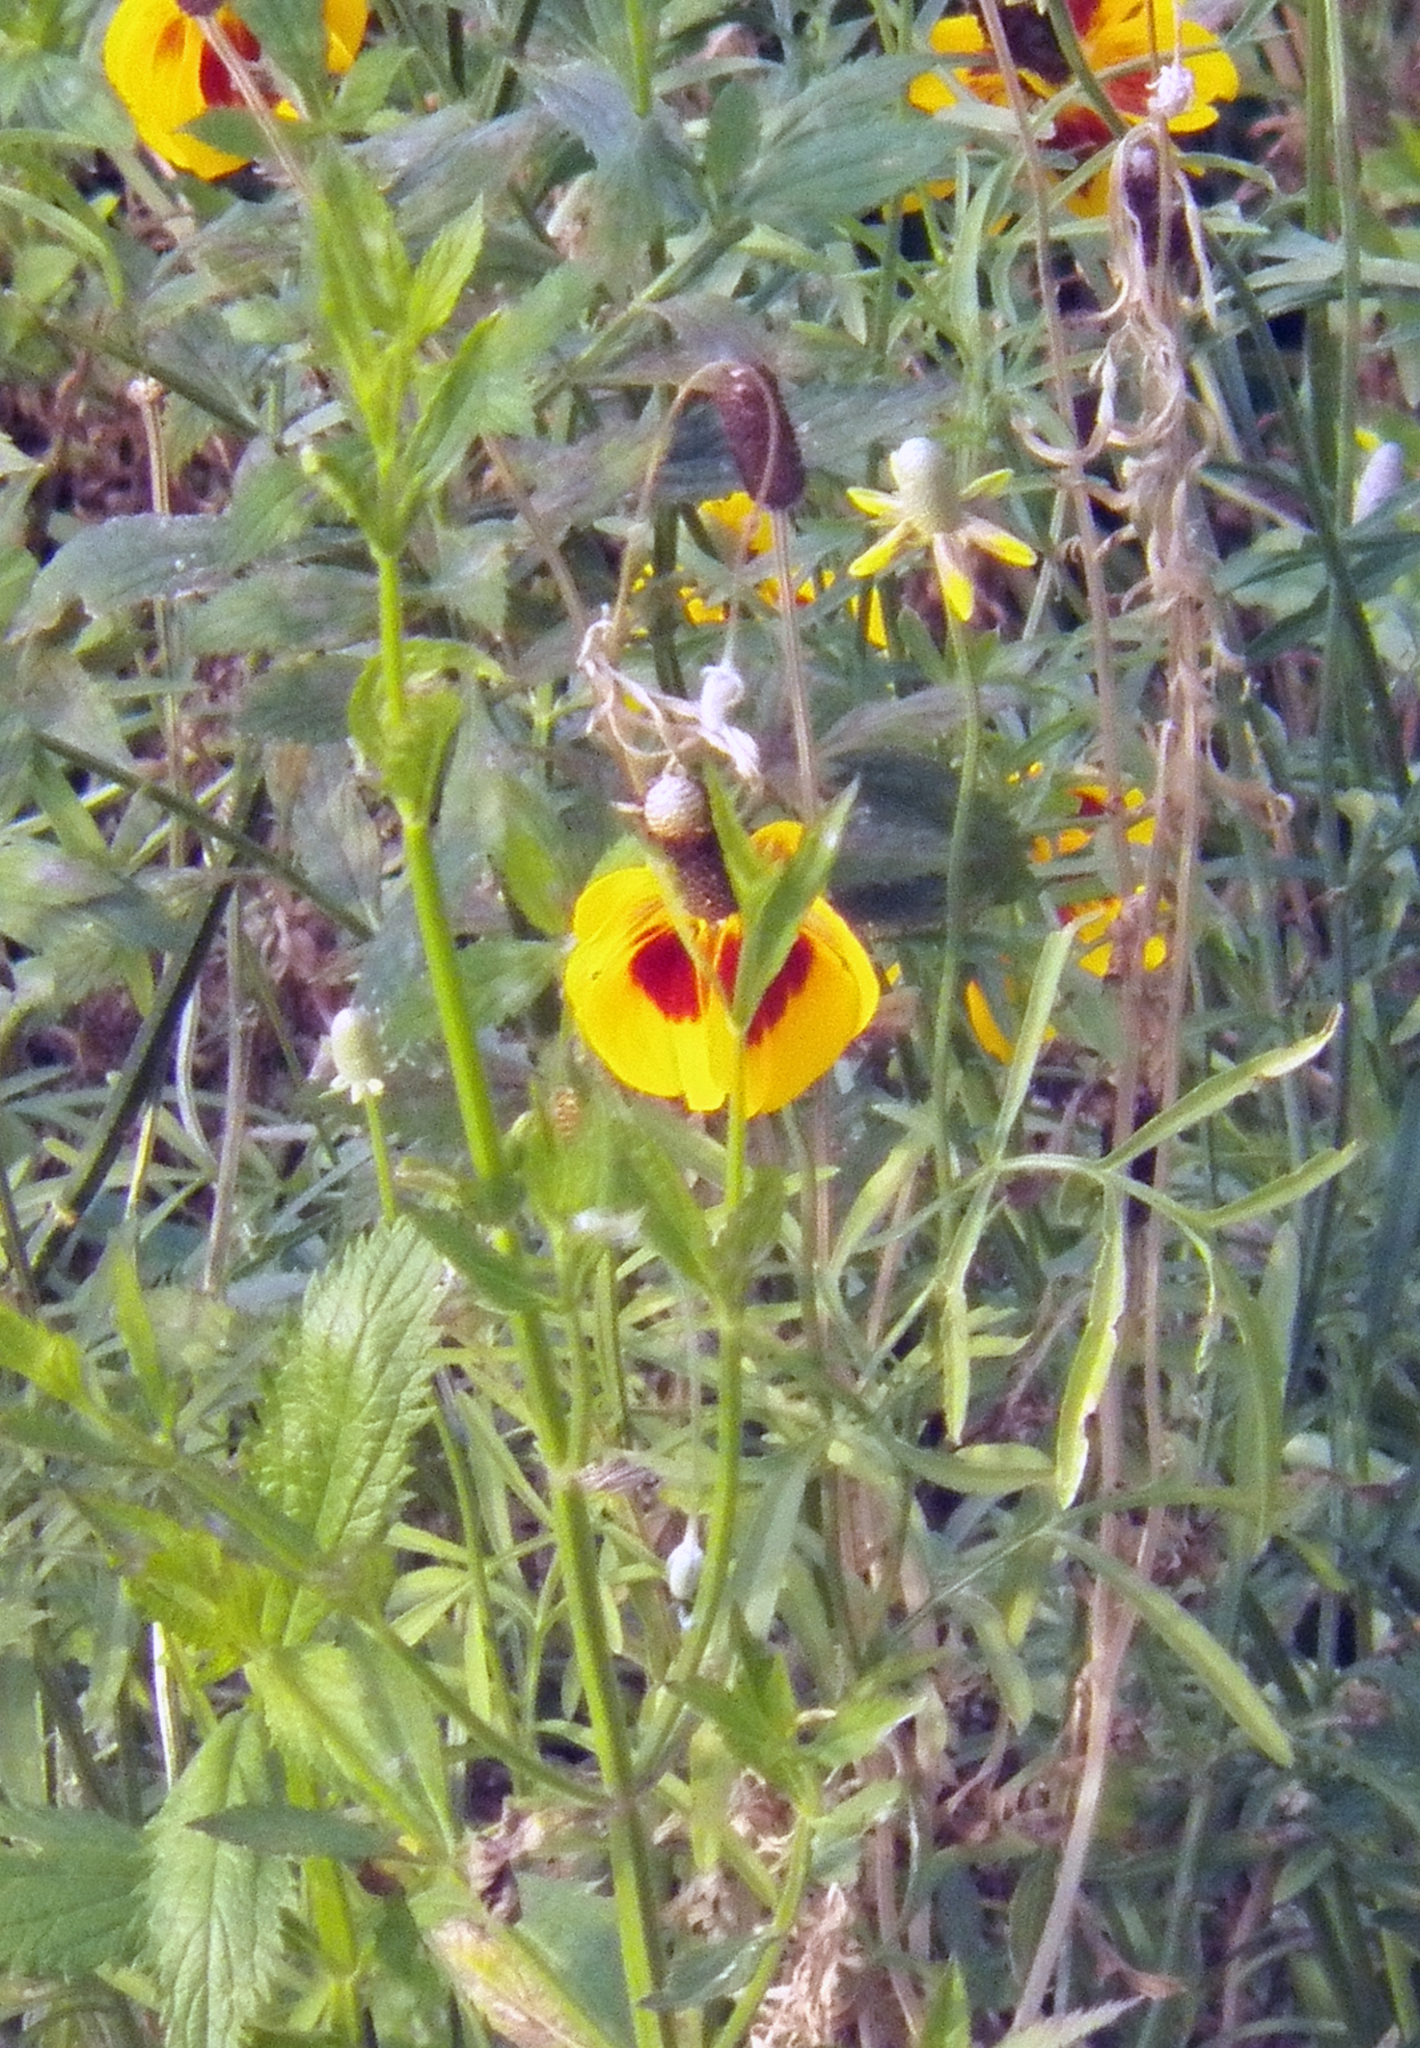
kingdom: Plantae
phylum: Tracheophyta
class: Magnoliopsida
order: Asterales
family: Asteraceae
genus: Ratibida
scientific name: Ratibida columnifera
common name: Prairie coneflower
